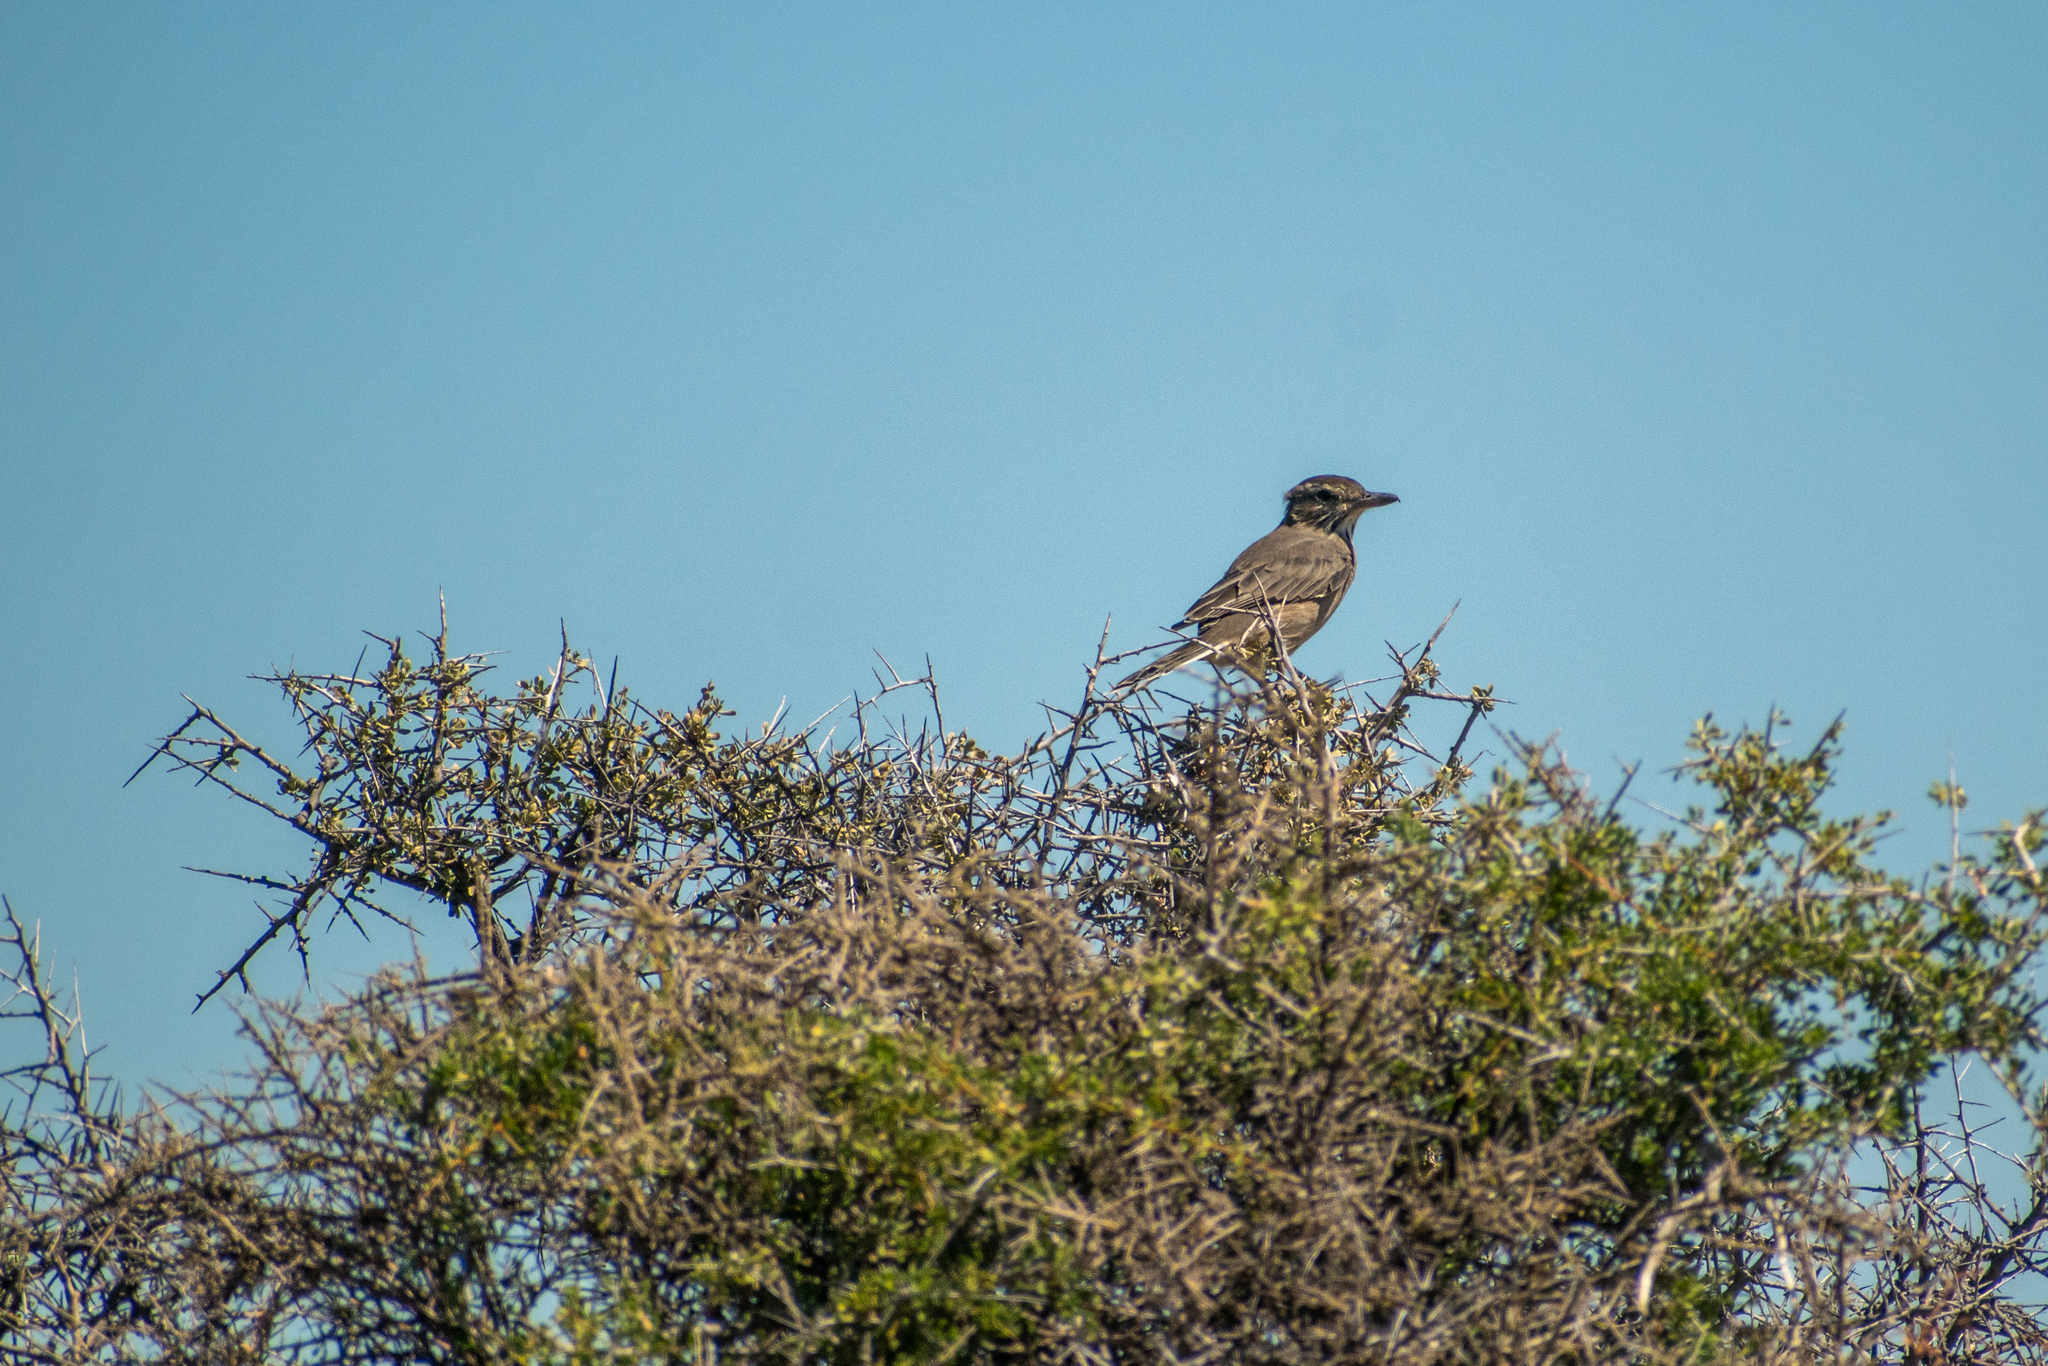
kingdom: Animalia
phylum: Chordata
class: Aves
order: Passeriformes
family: Tyrannidae
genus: Agriornis
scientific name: Agriornis micropterus
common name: Grey-bellied shrike-tyrant
